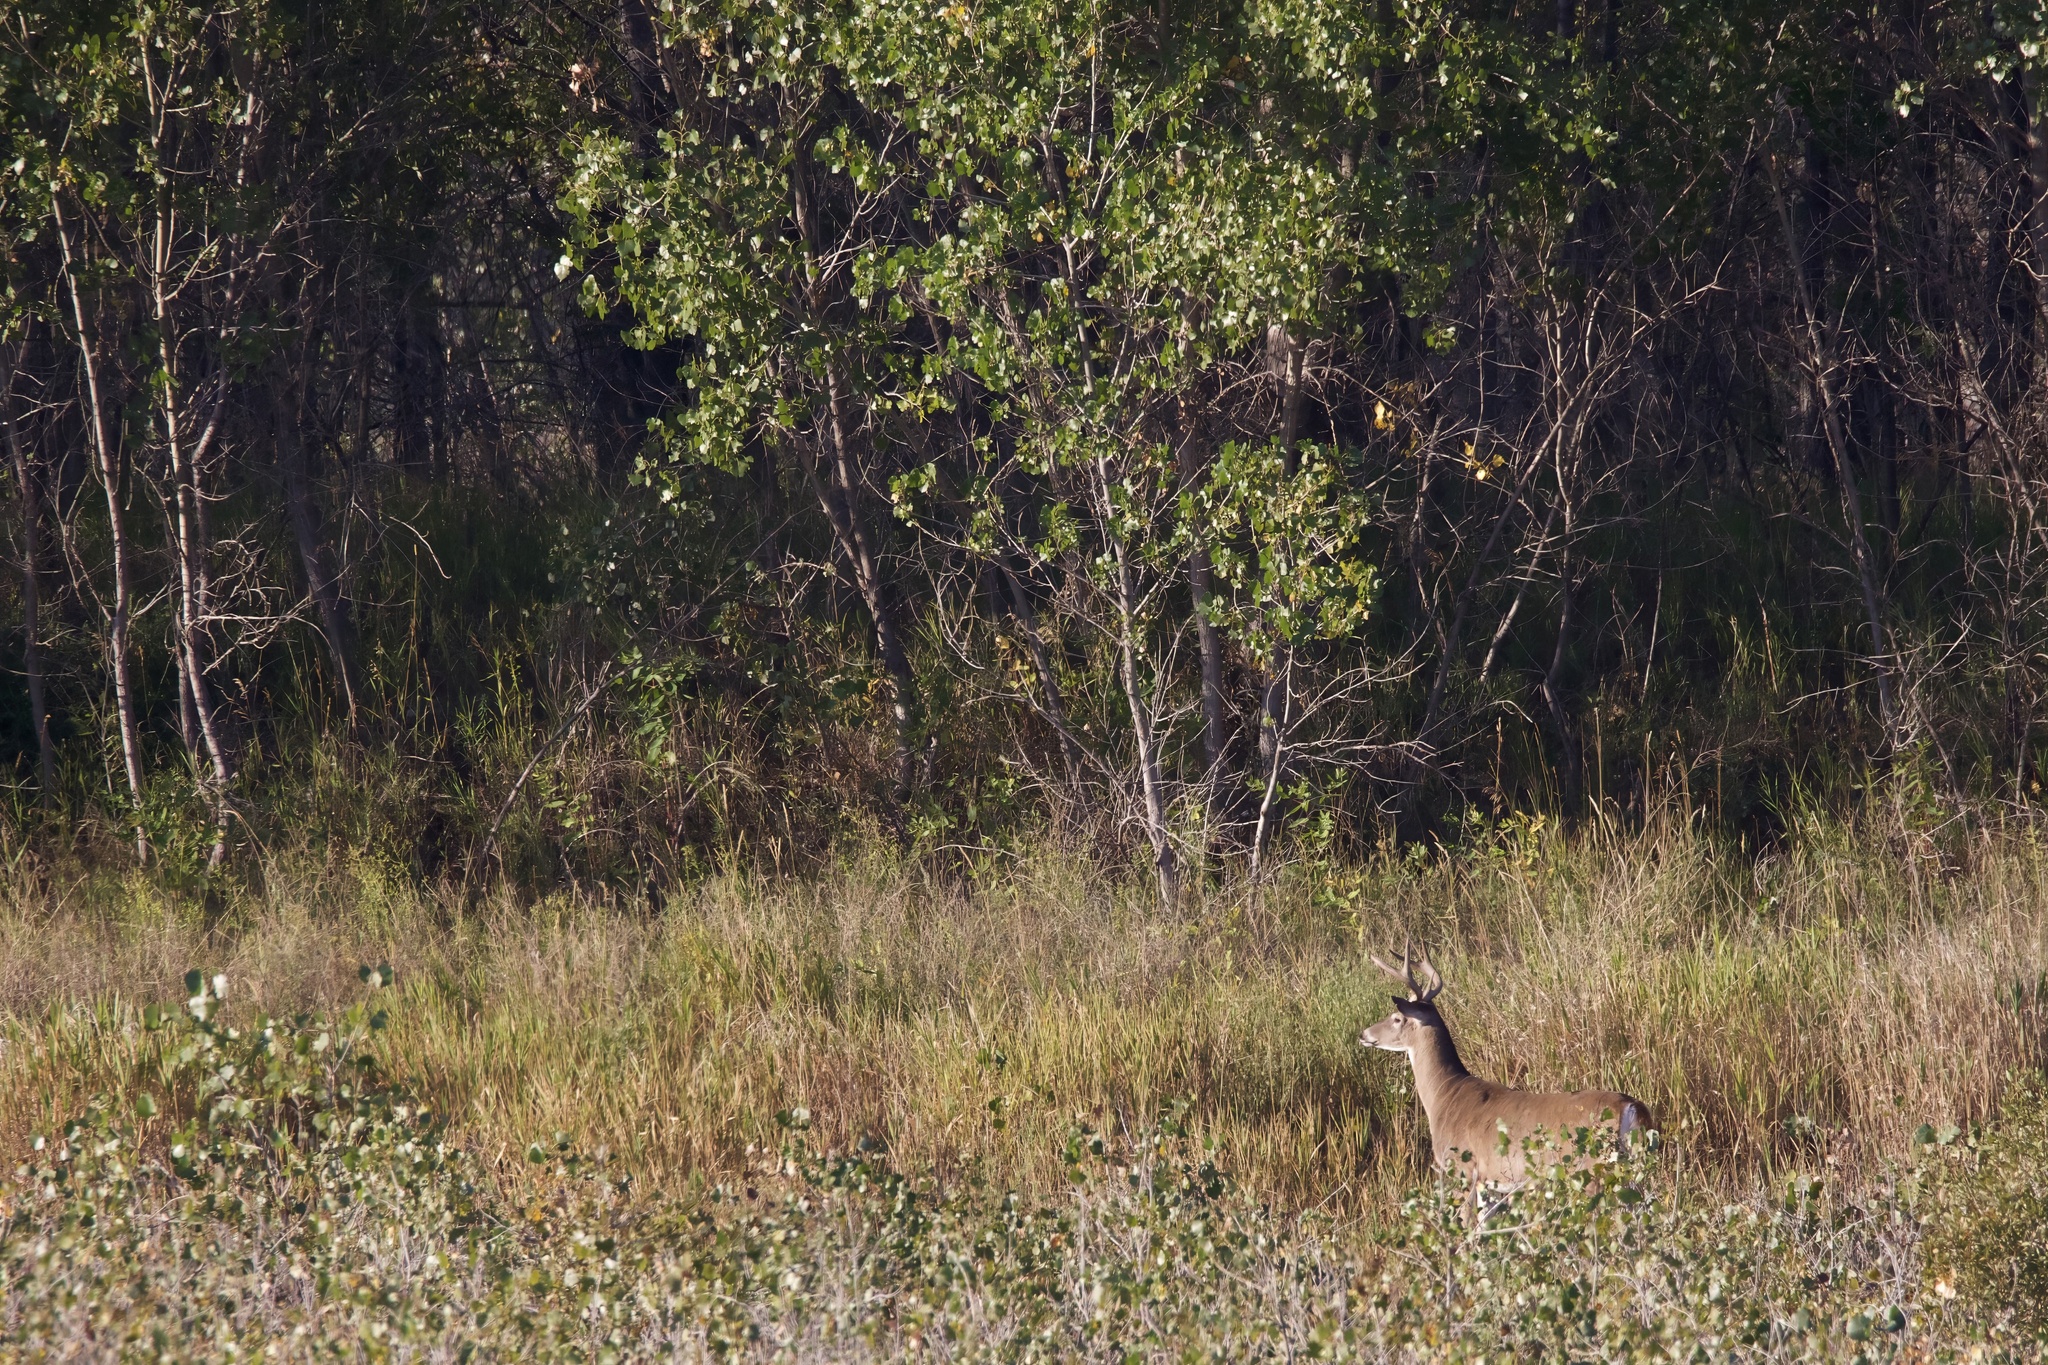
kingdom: Animalia
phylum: Chordata
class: Mammalia
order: Artiodactyla
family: Cervidae
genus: Odocoileus
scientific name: Odocoileus virginianus
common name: White-tailed deer
